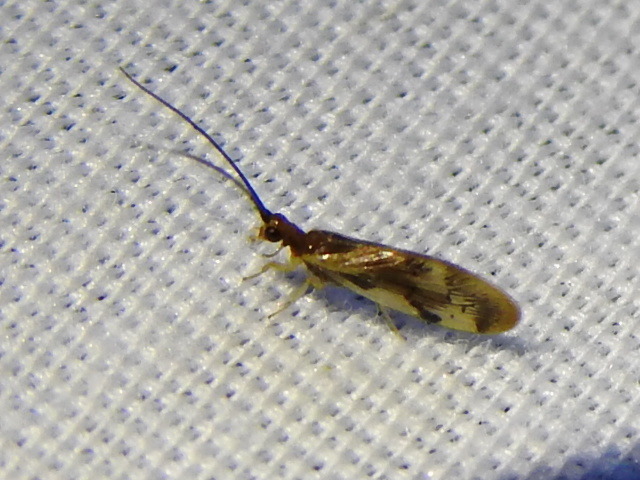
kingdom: Animalia
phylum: Arthropoda
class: Insecta
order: Neuroptera
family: Sisyridae
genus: Climacia
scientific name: Climacia areolaris
